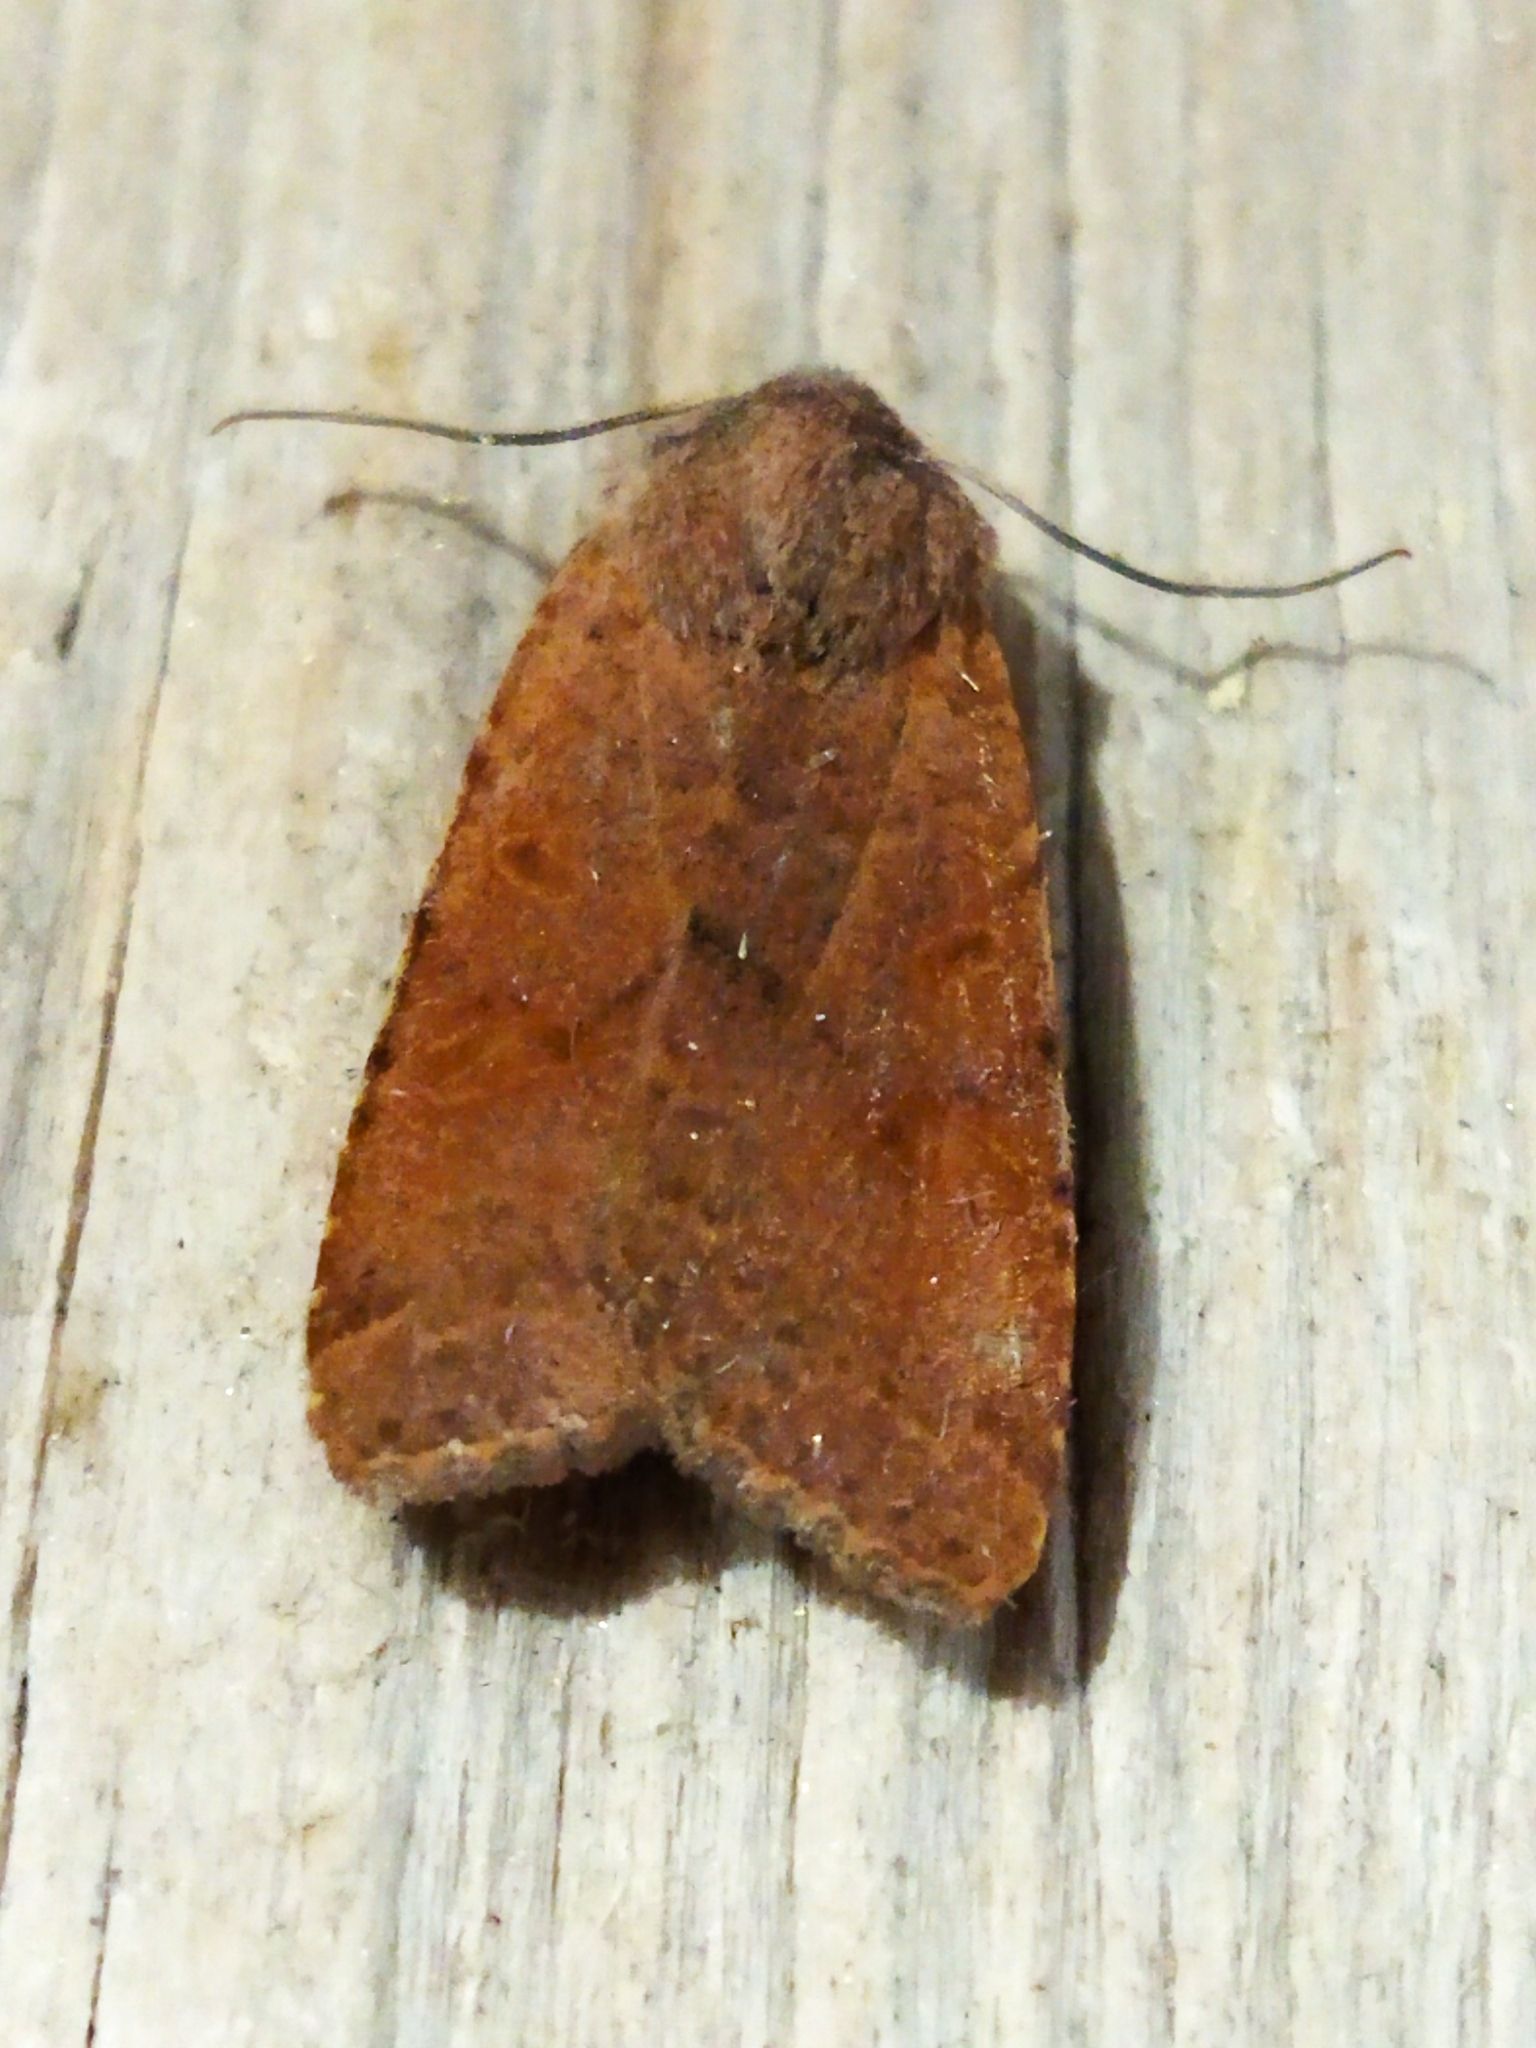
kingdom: Animalia
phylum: Arthropoda
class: Insecta
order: Lepidoptera
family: Noctuidae
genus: Agrochola
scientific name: Agrochola lychnidis
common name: Beaded chestnut
